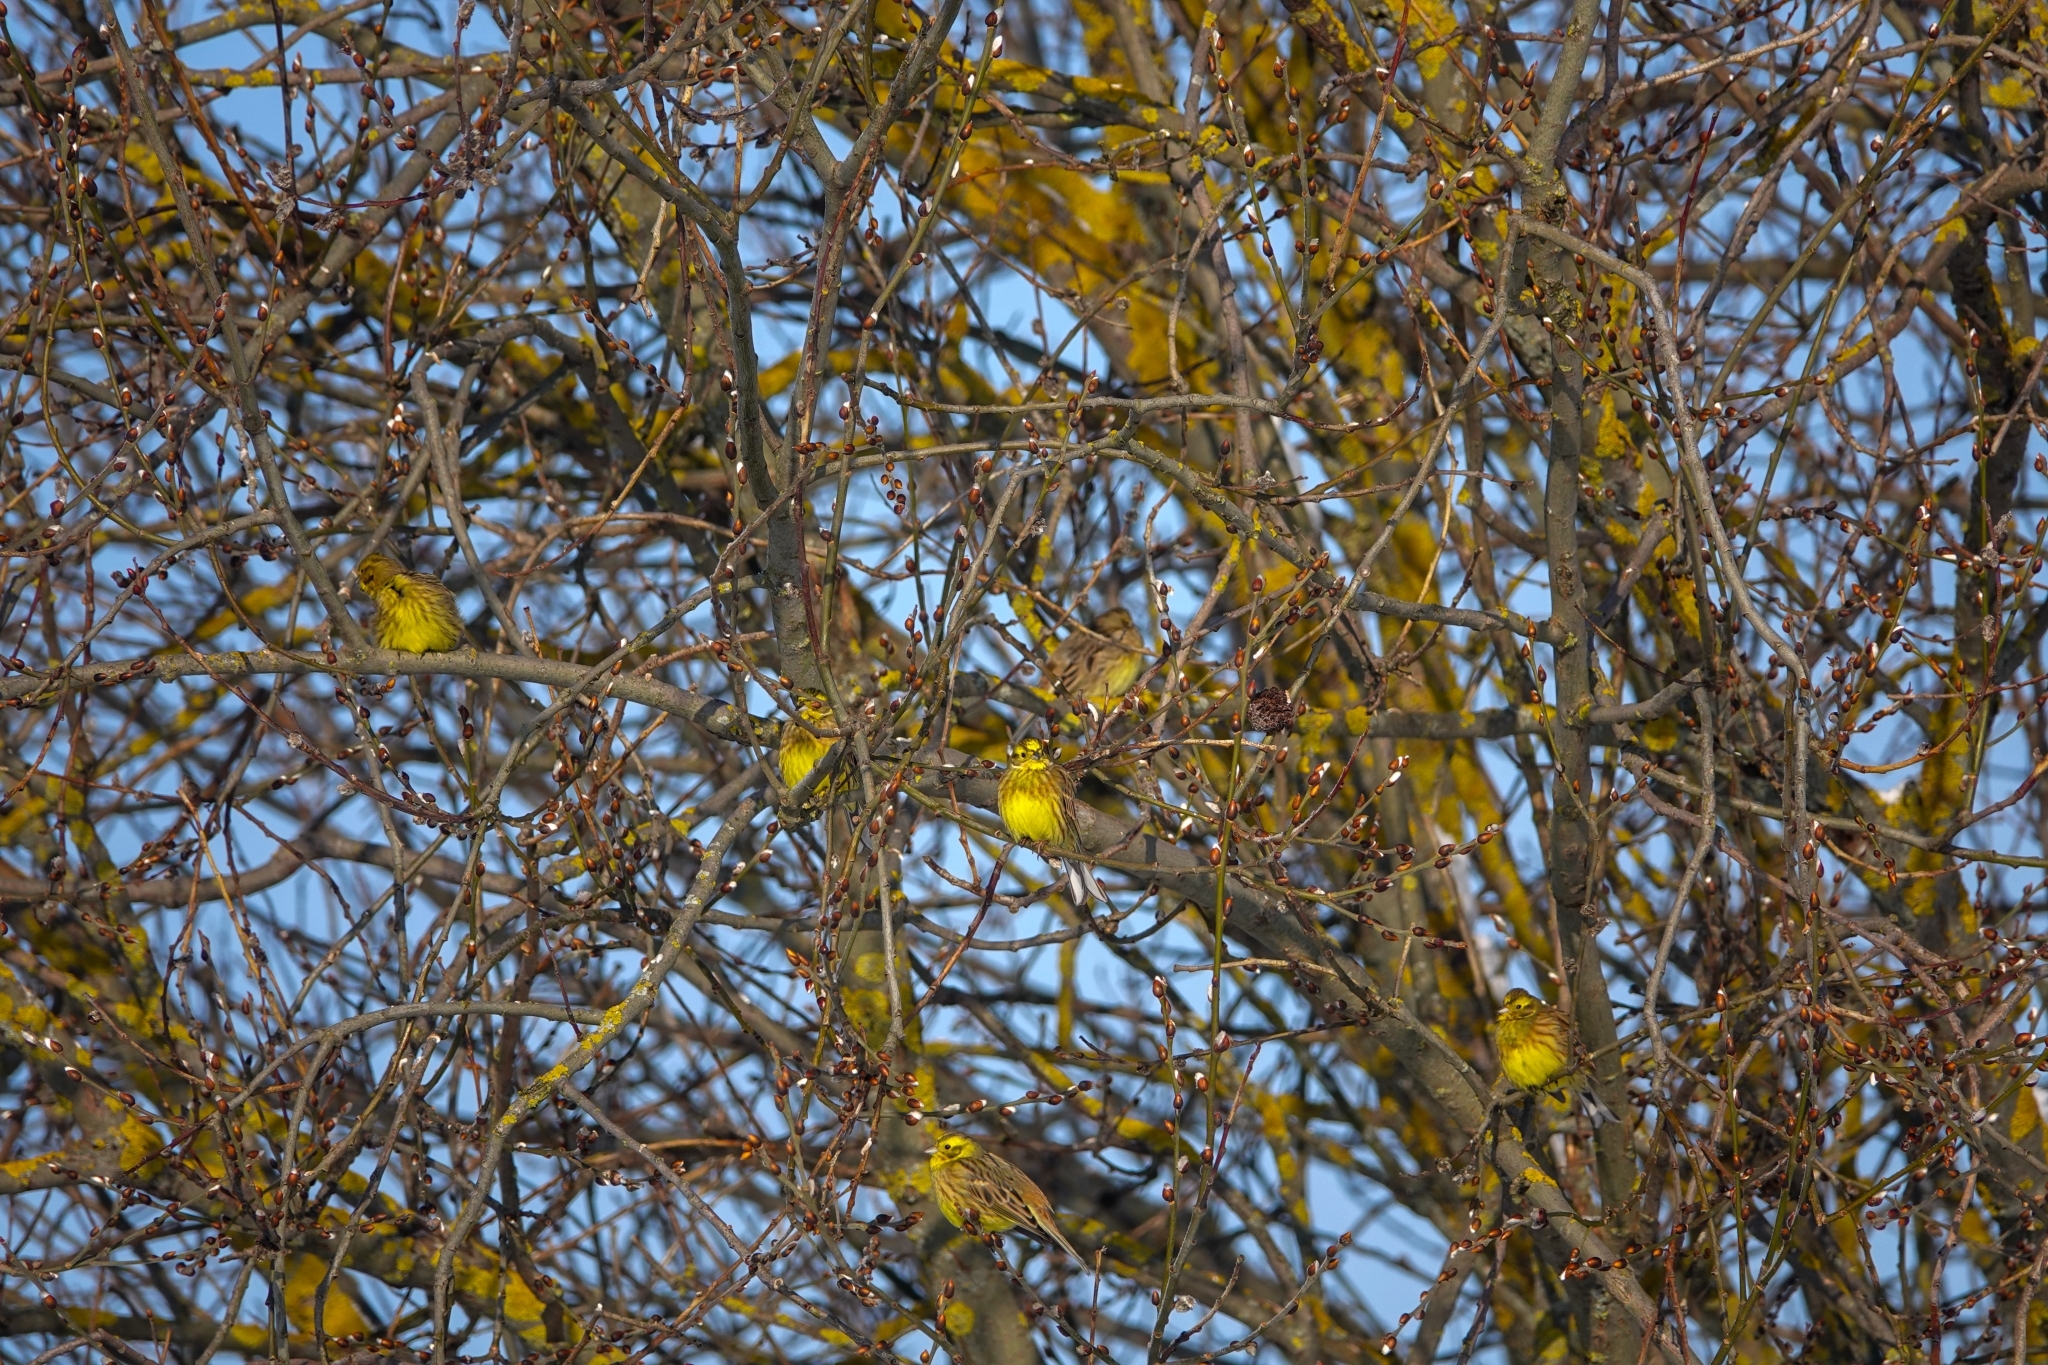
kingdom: Animalia
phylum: Chordata
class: Aves
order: Passeriformes
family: Emberizidae
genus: Emberiza
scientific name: Emberiza citrinella
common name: Yellowhammer
